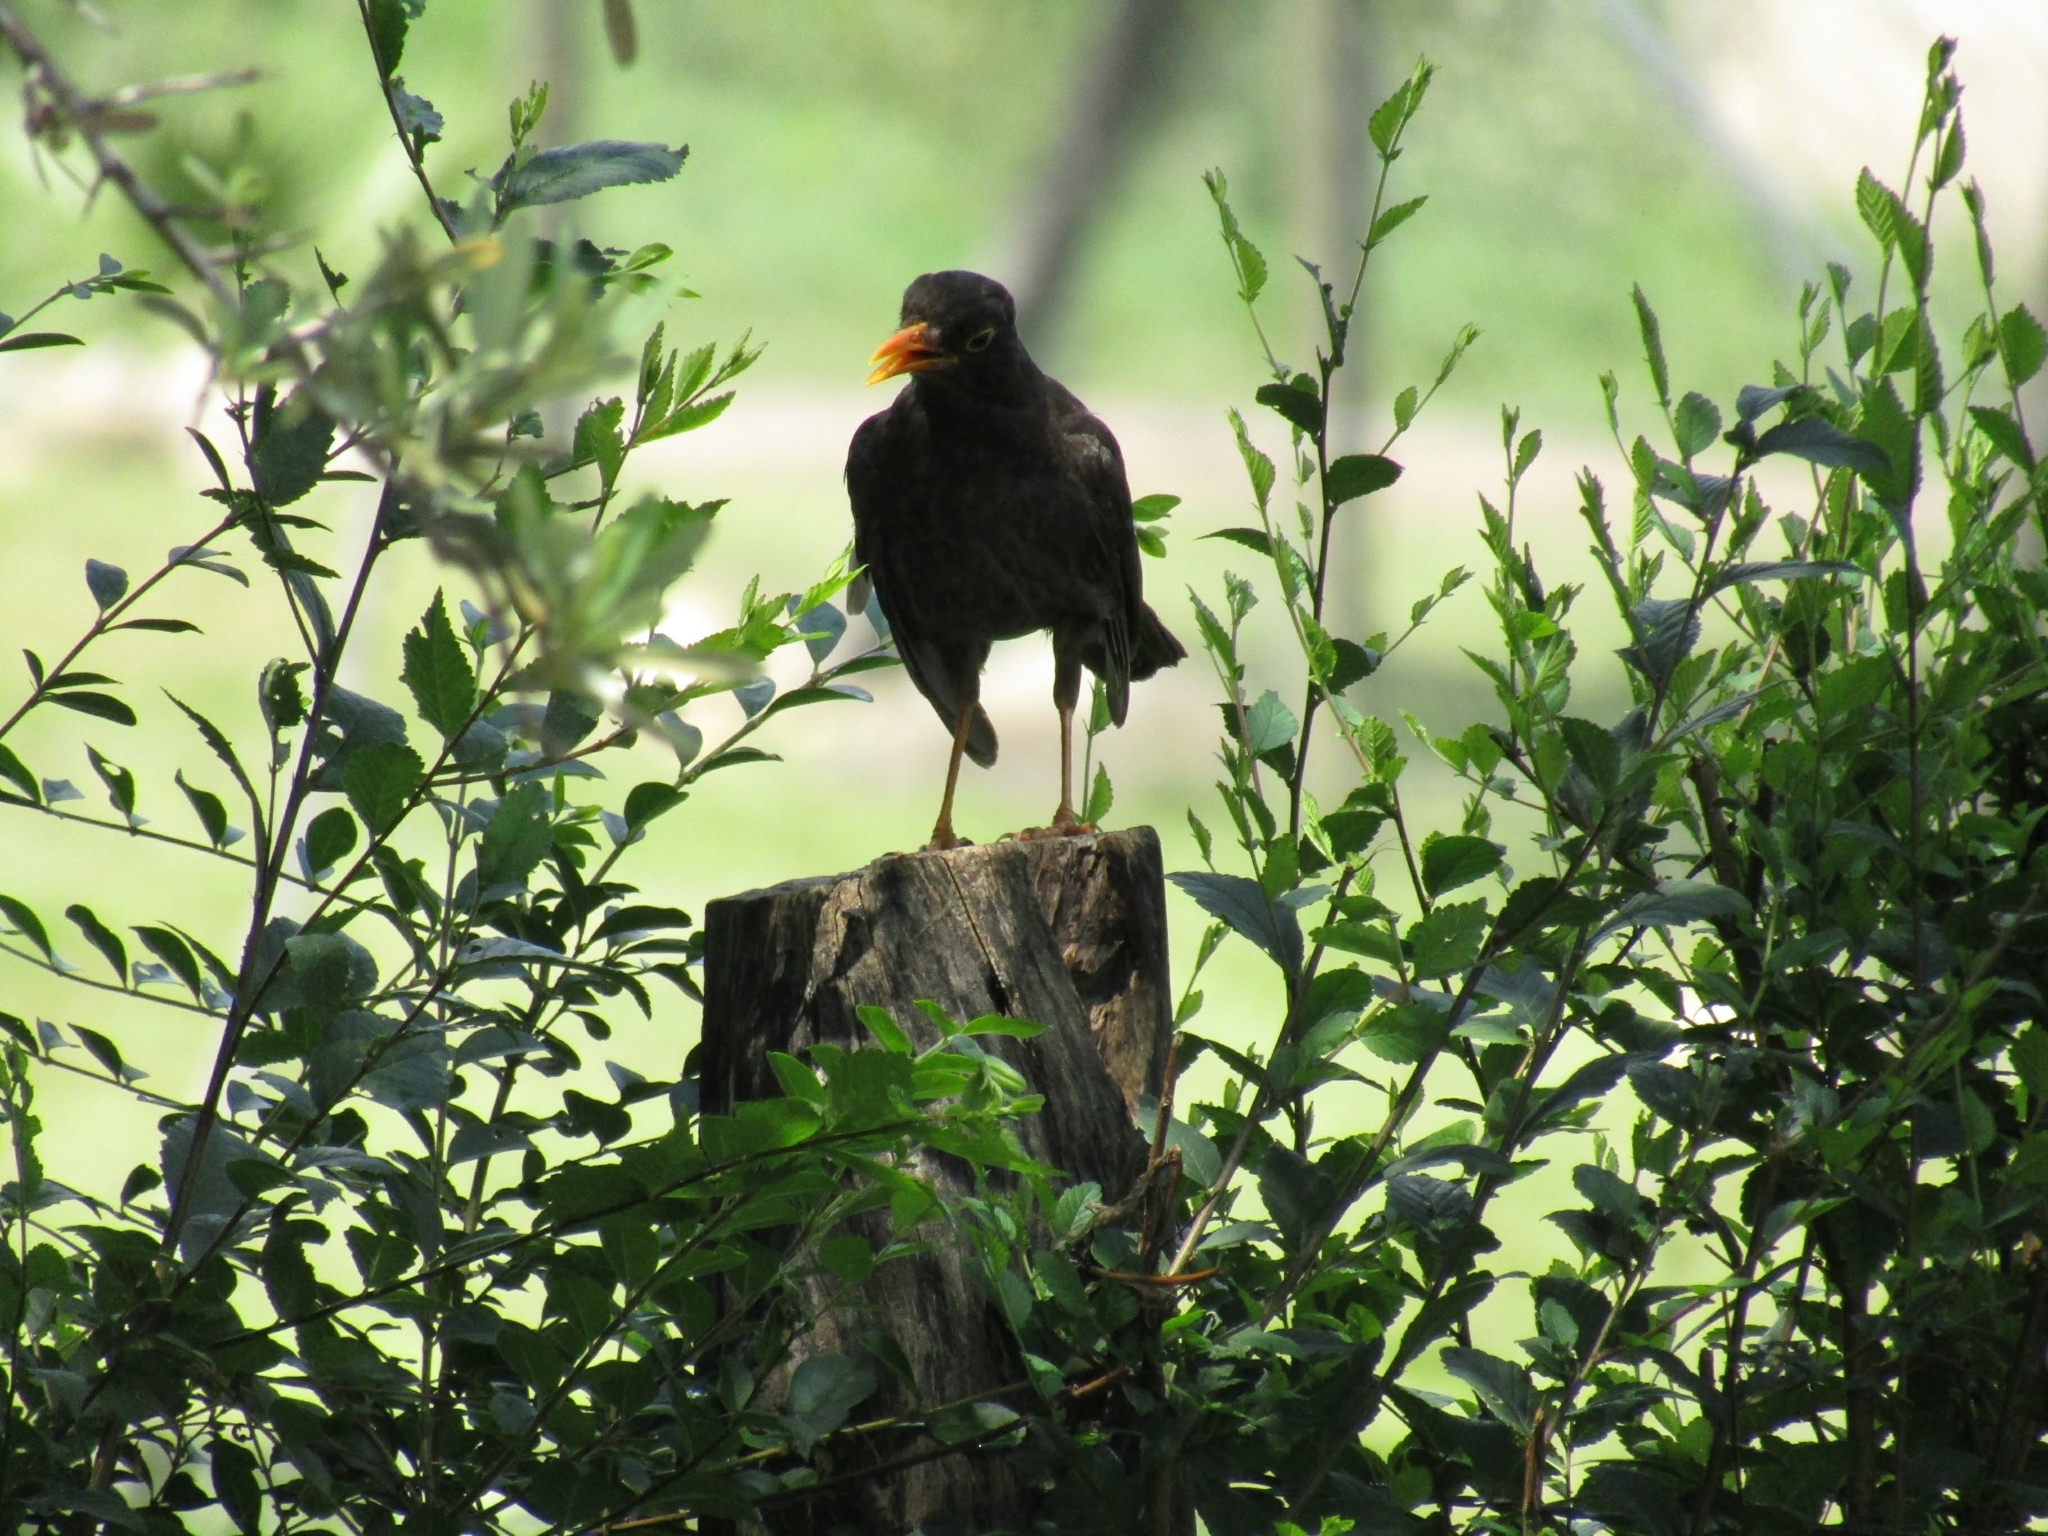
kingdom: Animalia
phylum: Chordata
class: Aves
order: Passeriformes
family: Turdidae
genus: Turdus
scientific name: Turdus chiguanco
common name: Chiguanco thrush
